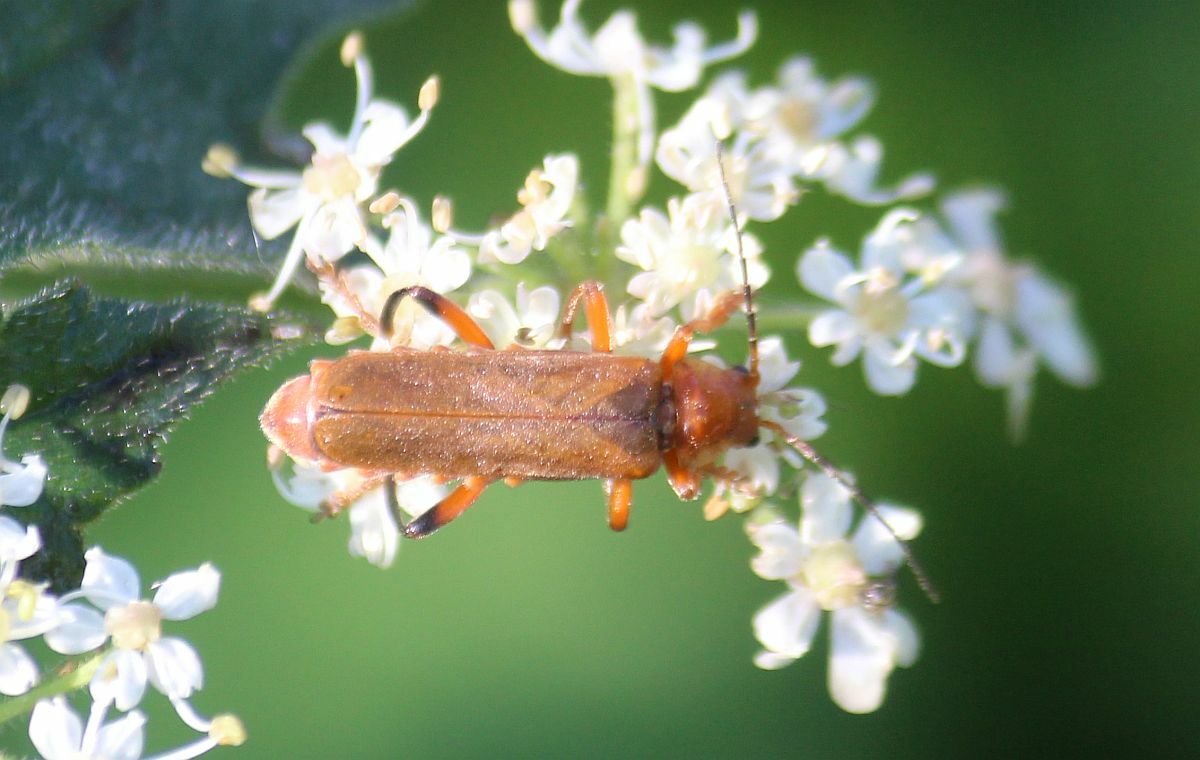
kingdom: Animalia
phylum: Arthropoda
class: Insecta
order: Coleoptera
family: Cantharidae
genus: Cantharis
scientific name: Cantharis livida
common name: Livid soldier beetle
